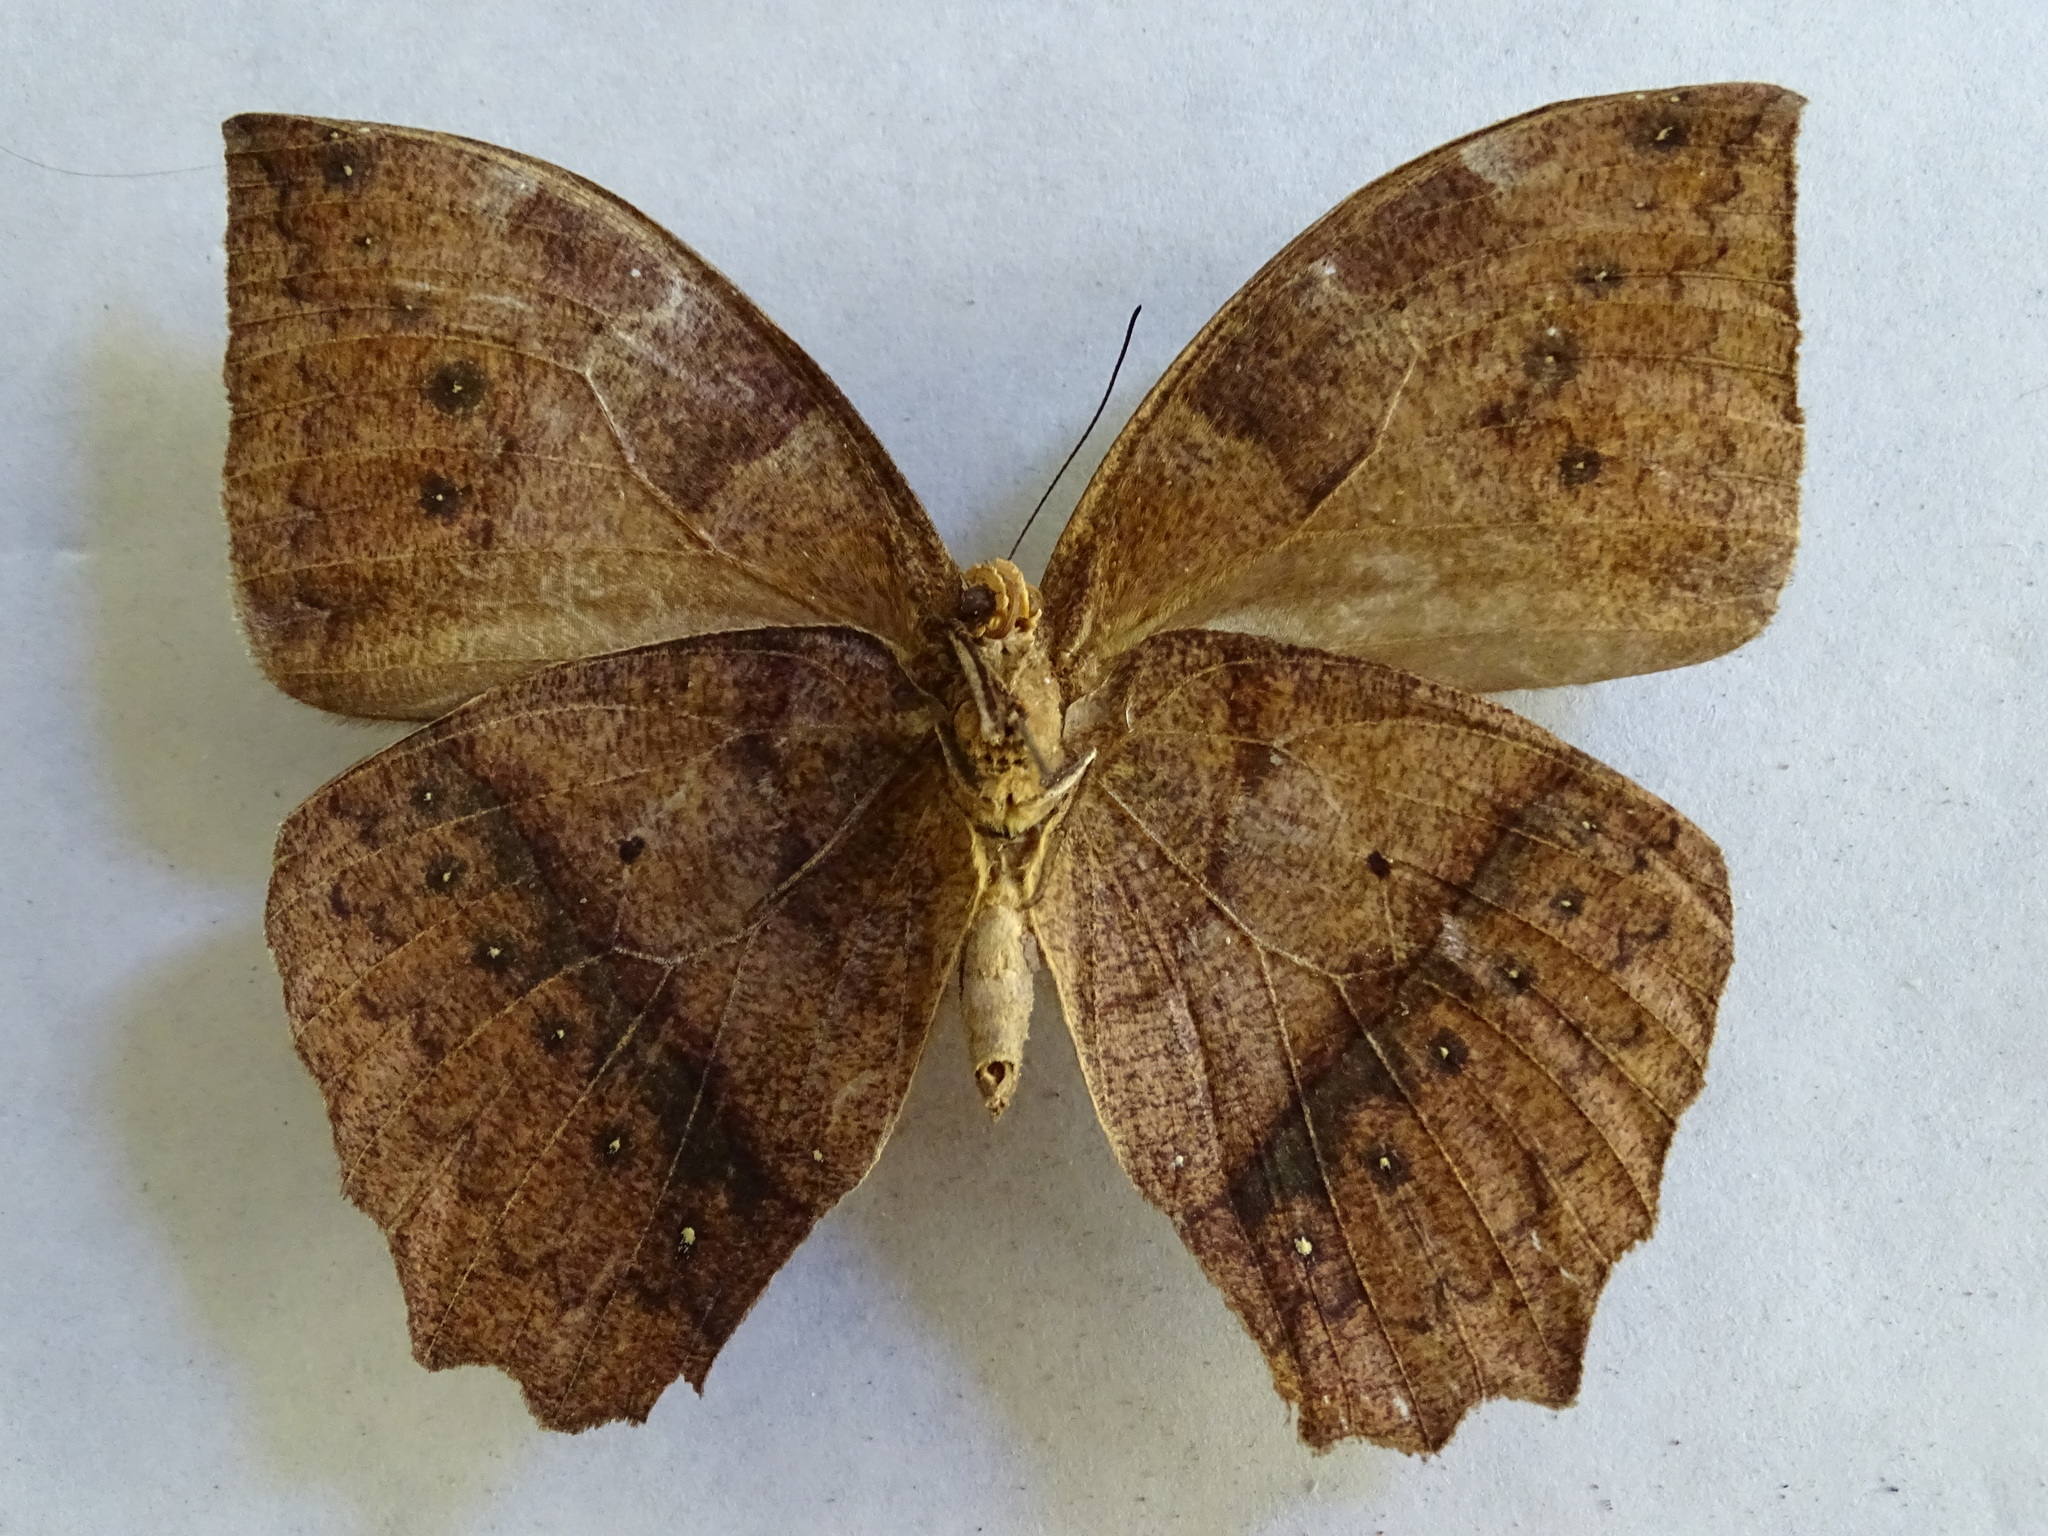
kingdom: Animalia
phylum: Arthropoda
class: Insecta
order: Lepidoptera
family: Nymphalidae
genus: Taygetis
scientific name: Taygetis mermeria
